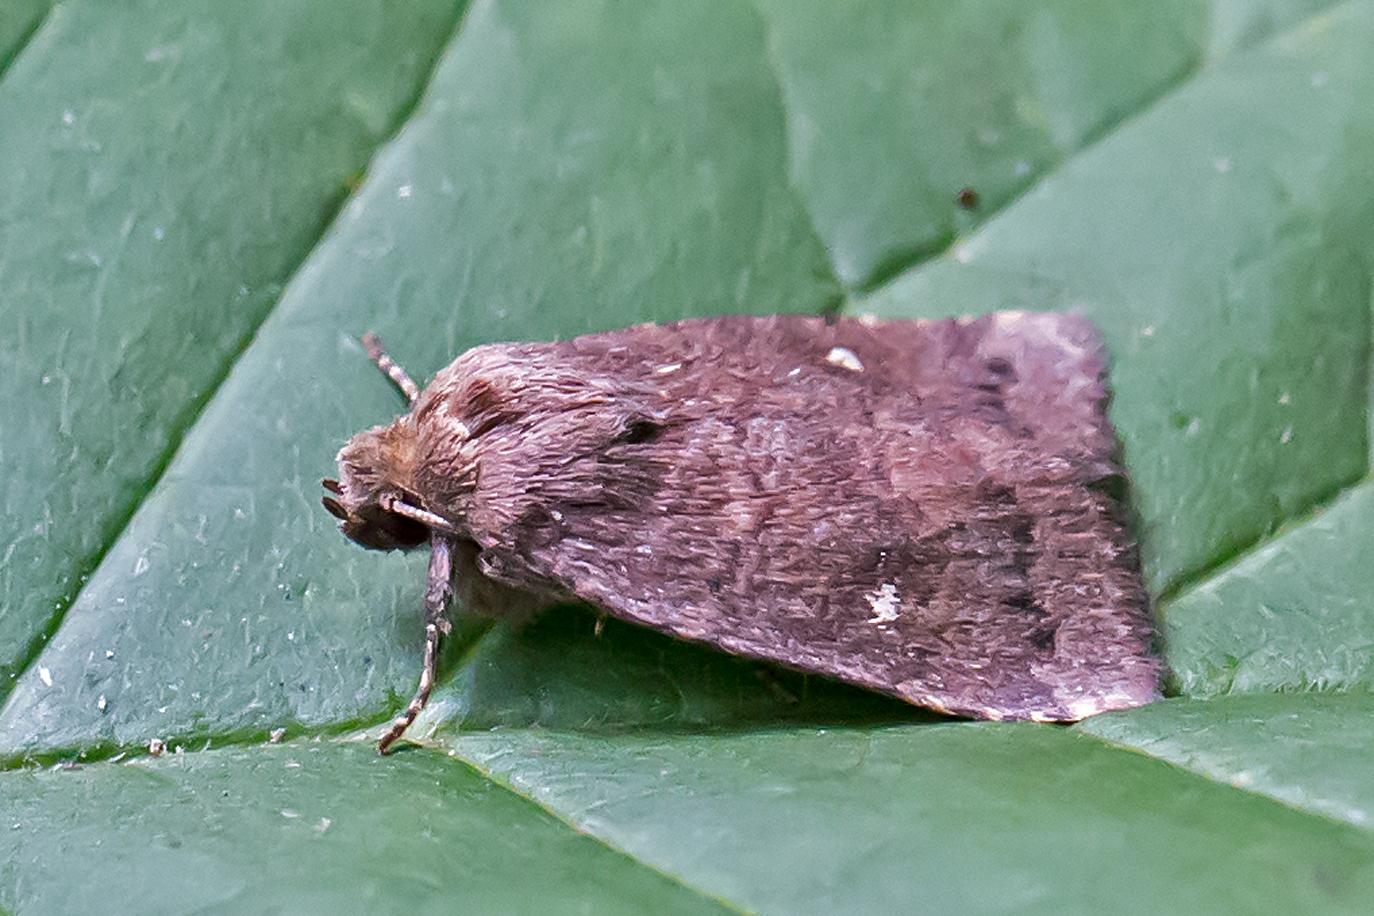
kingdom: Animalia
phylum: Arthropoda
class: Insecta
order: Lepidoptera
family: Noctuidae
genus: Pseudorthodes
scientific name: Pseudorthodes vecors
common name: Small brown quaker
